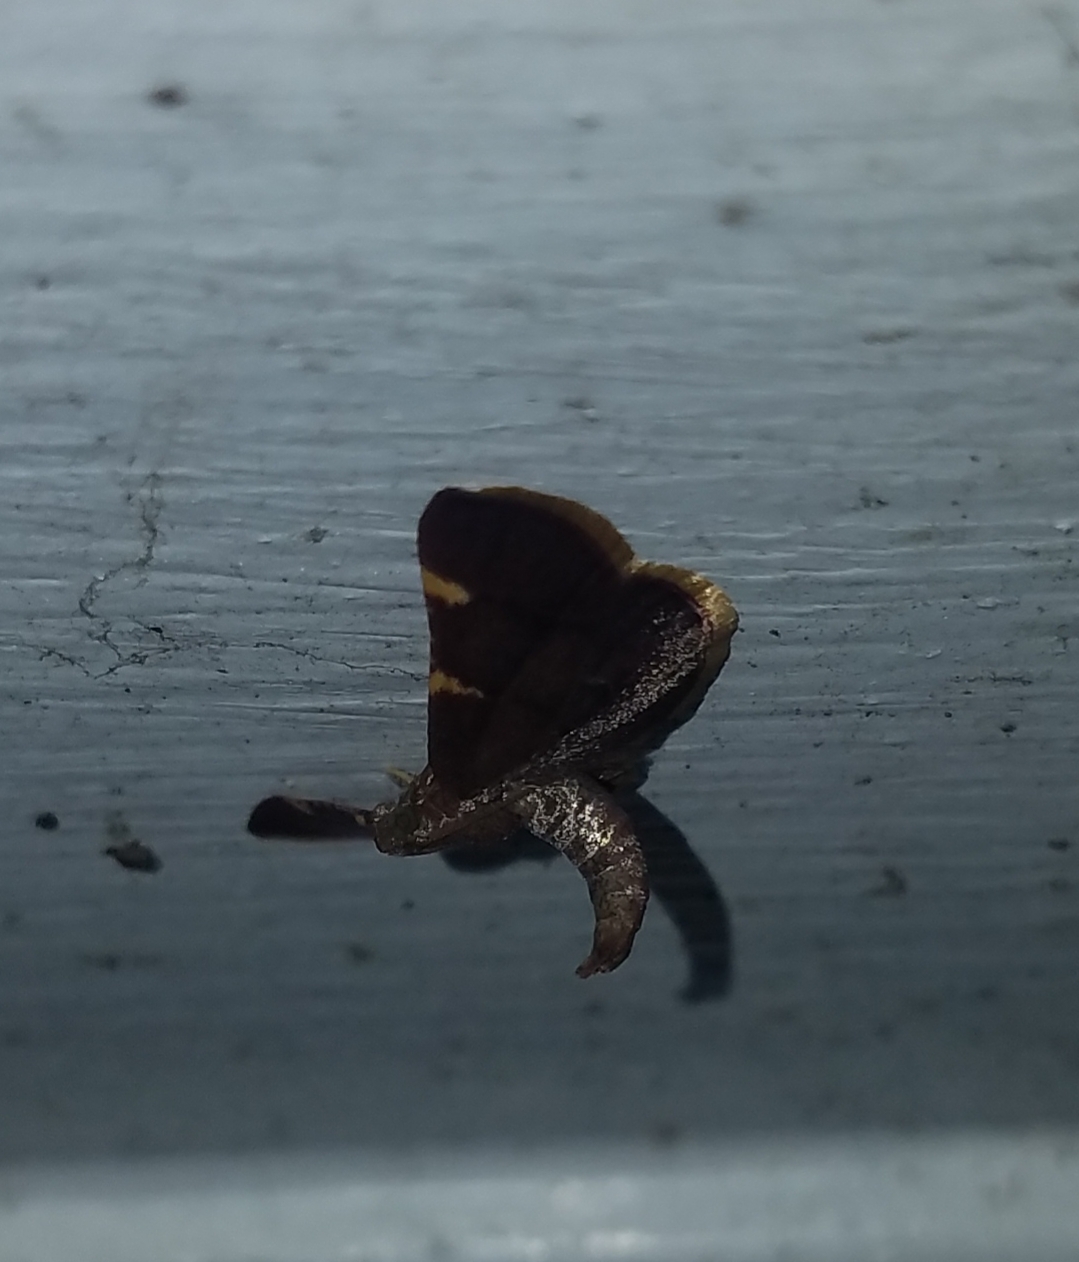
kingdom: Animalia
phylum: Arthropoda
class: Insecta
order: Lepidoptera
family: Pyralidae
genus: Hypsopygia
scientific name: Hypsopygia olinalis
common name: Yellow-fringed dolichomia moth
